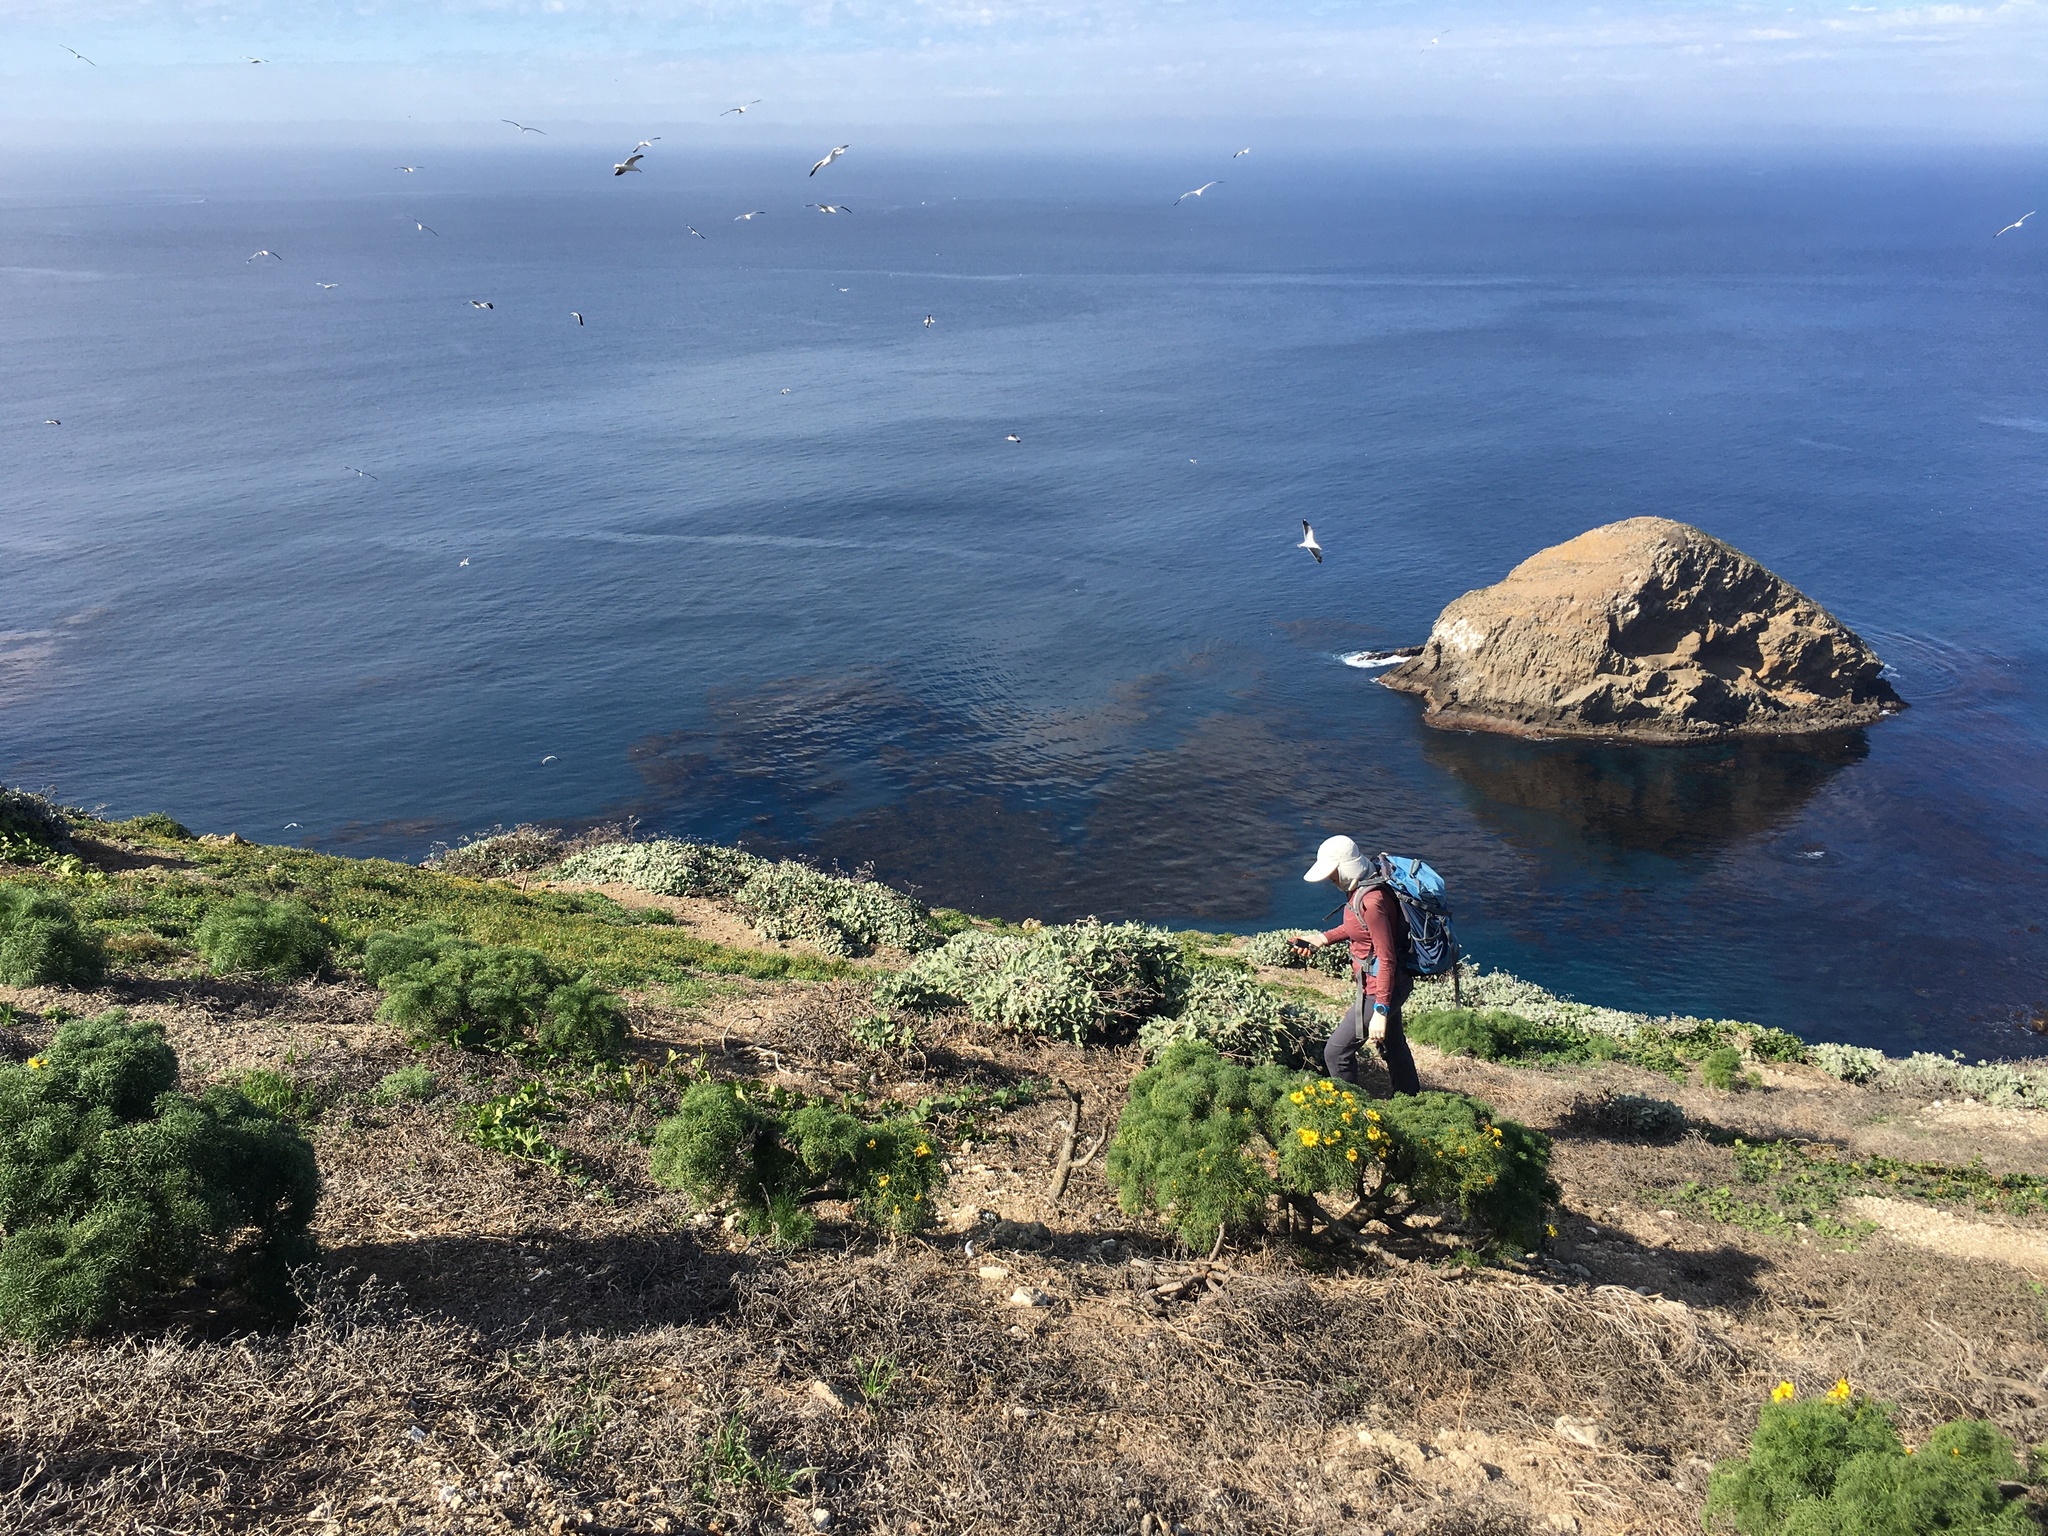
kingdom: Plantae
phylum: Tracheophyta
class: Magnoliopsida
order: Asterales
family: Asteraceae
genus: Coreopsis
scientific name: Coreopsis gigantea
